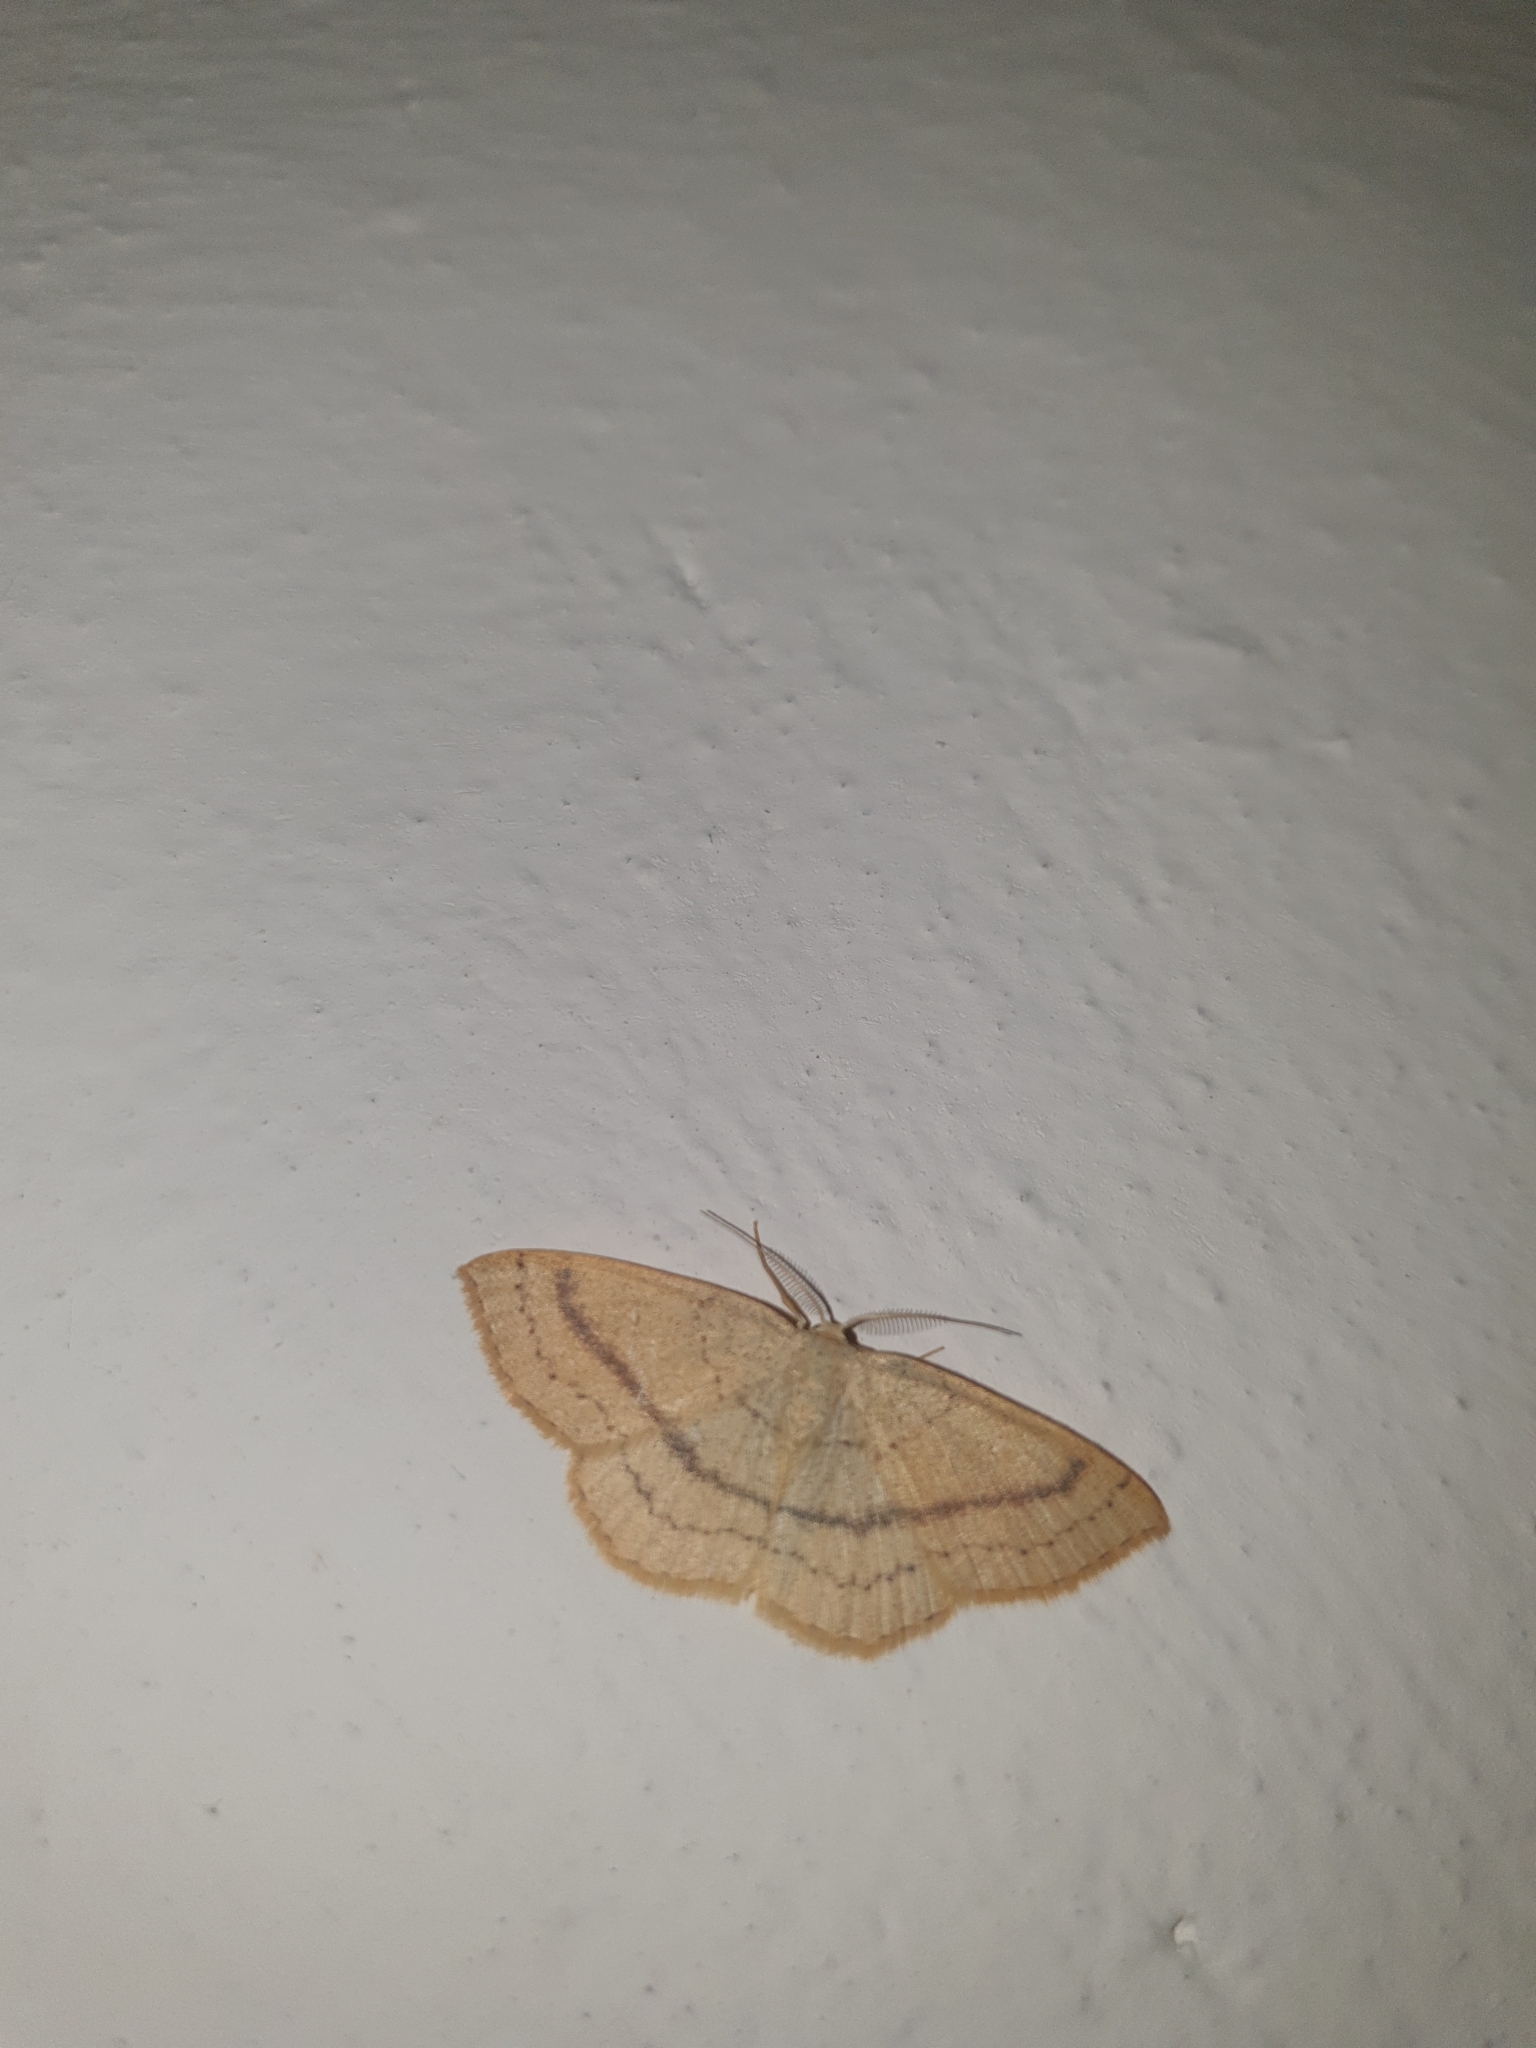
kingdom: Animalia
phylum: Arthropoda
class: Insecta
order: Lepidoptera
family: Geometridae
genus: Cyclophora
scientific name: Cyclophora linearia
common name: Clay triple-lines
